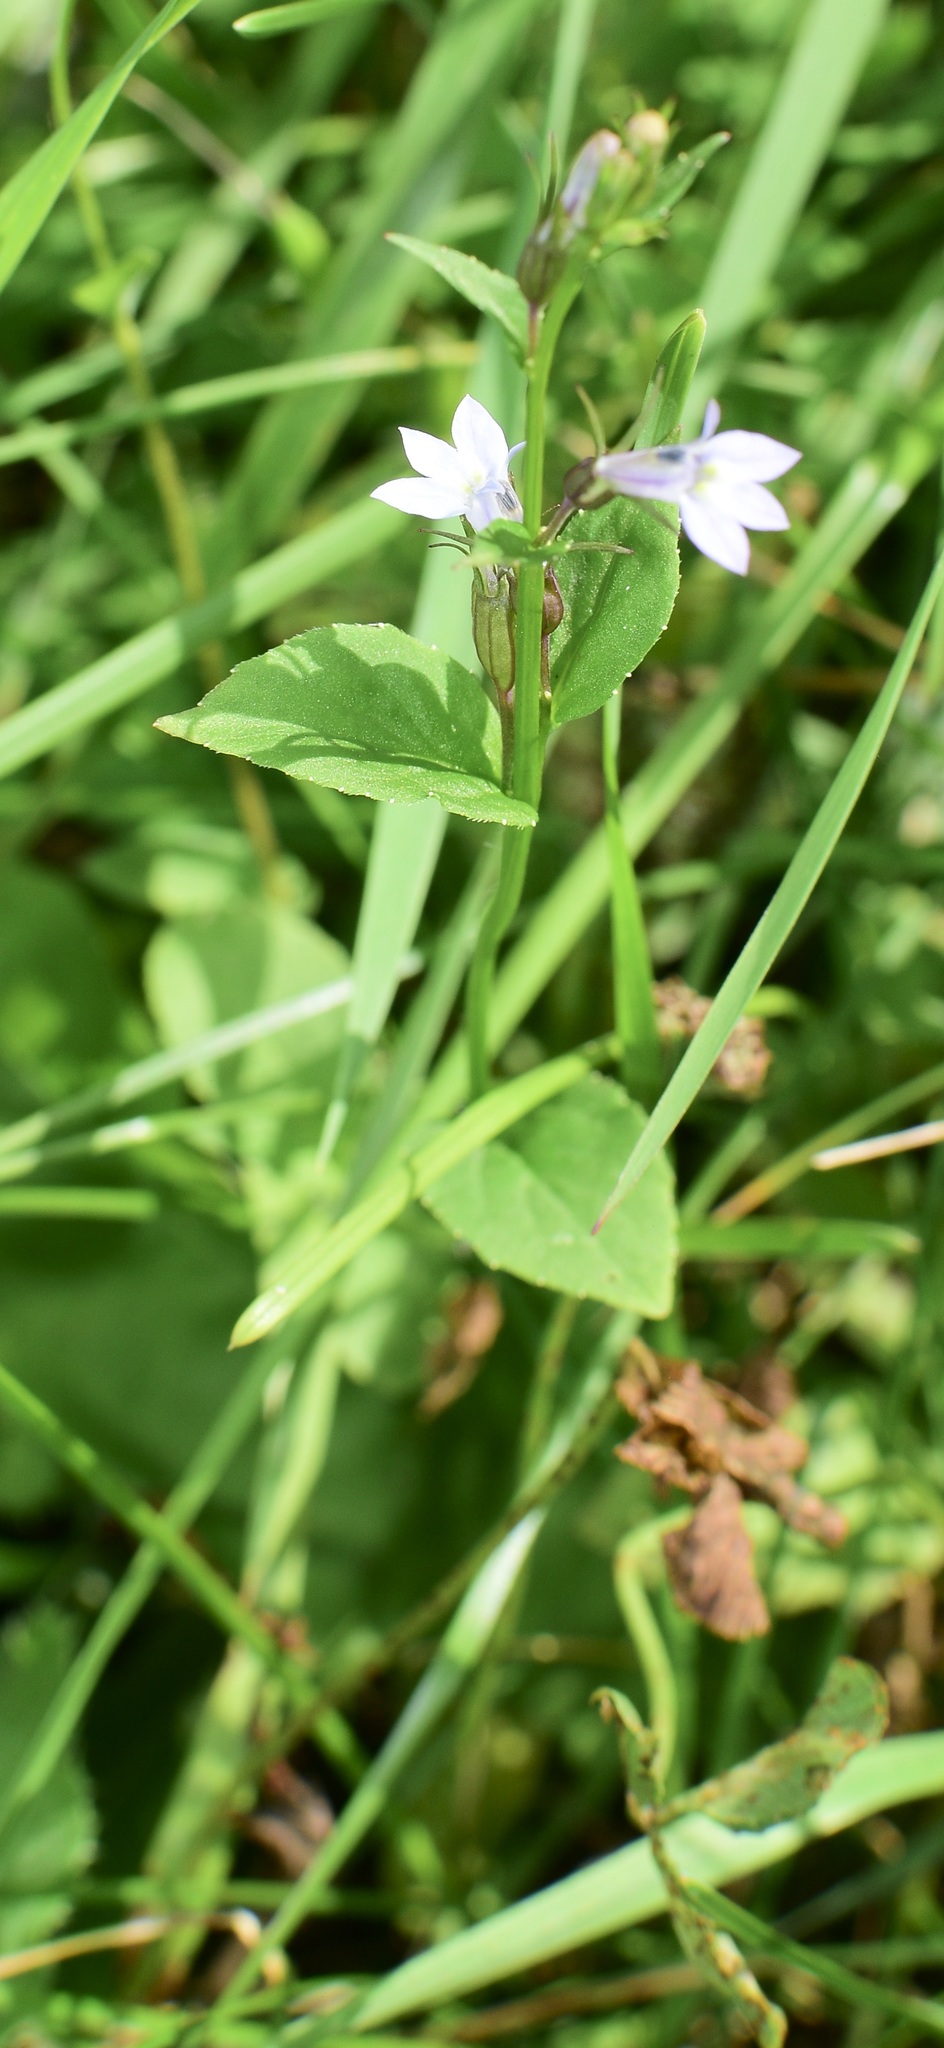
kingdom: Plantae
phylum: Tracheophyta
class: Magnoliopsida
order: Asterales
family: Campanulaceae
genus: Lobelia
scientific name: Lobelia inflata
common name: Indian tobacco
